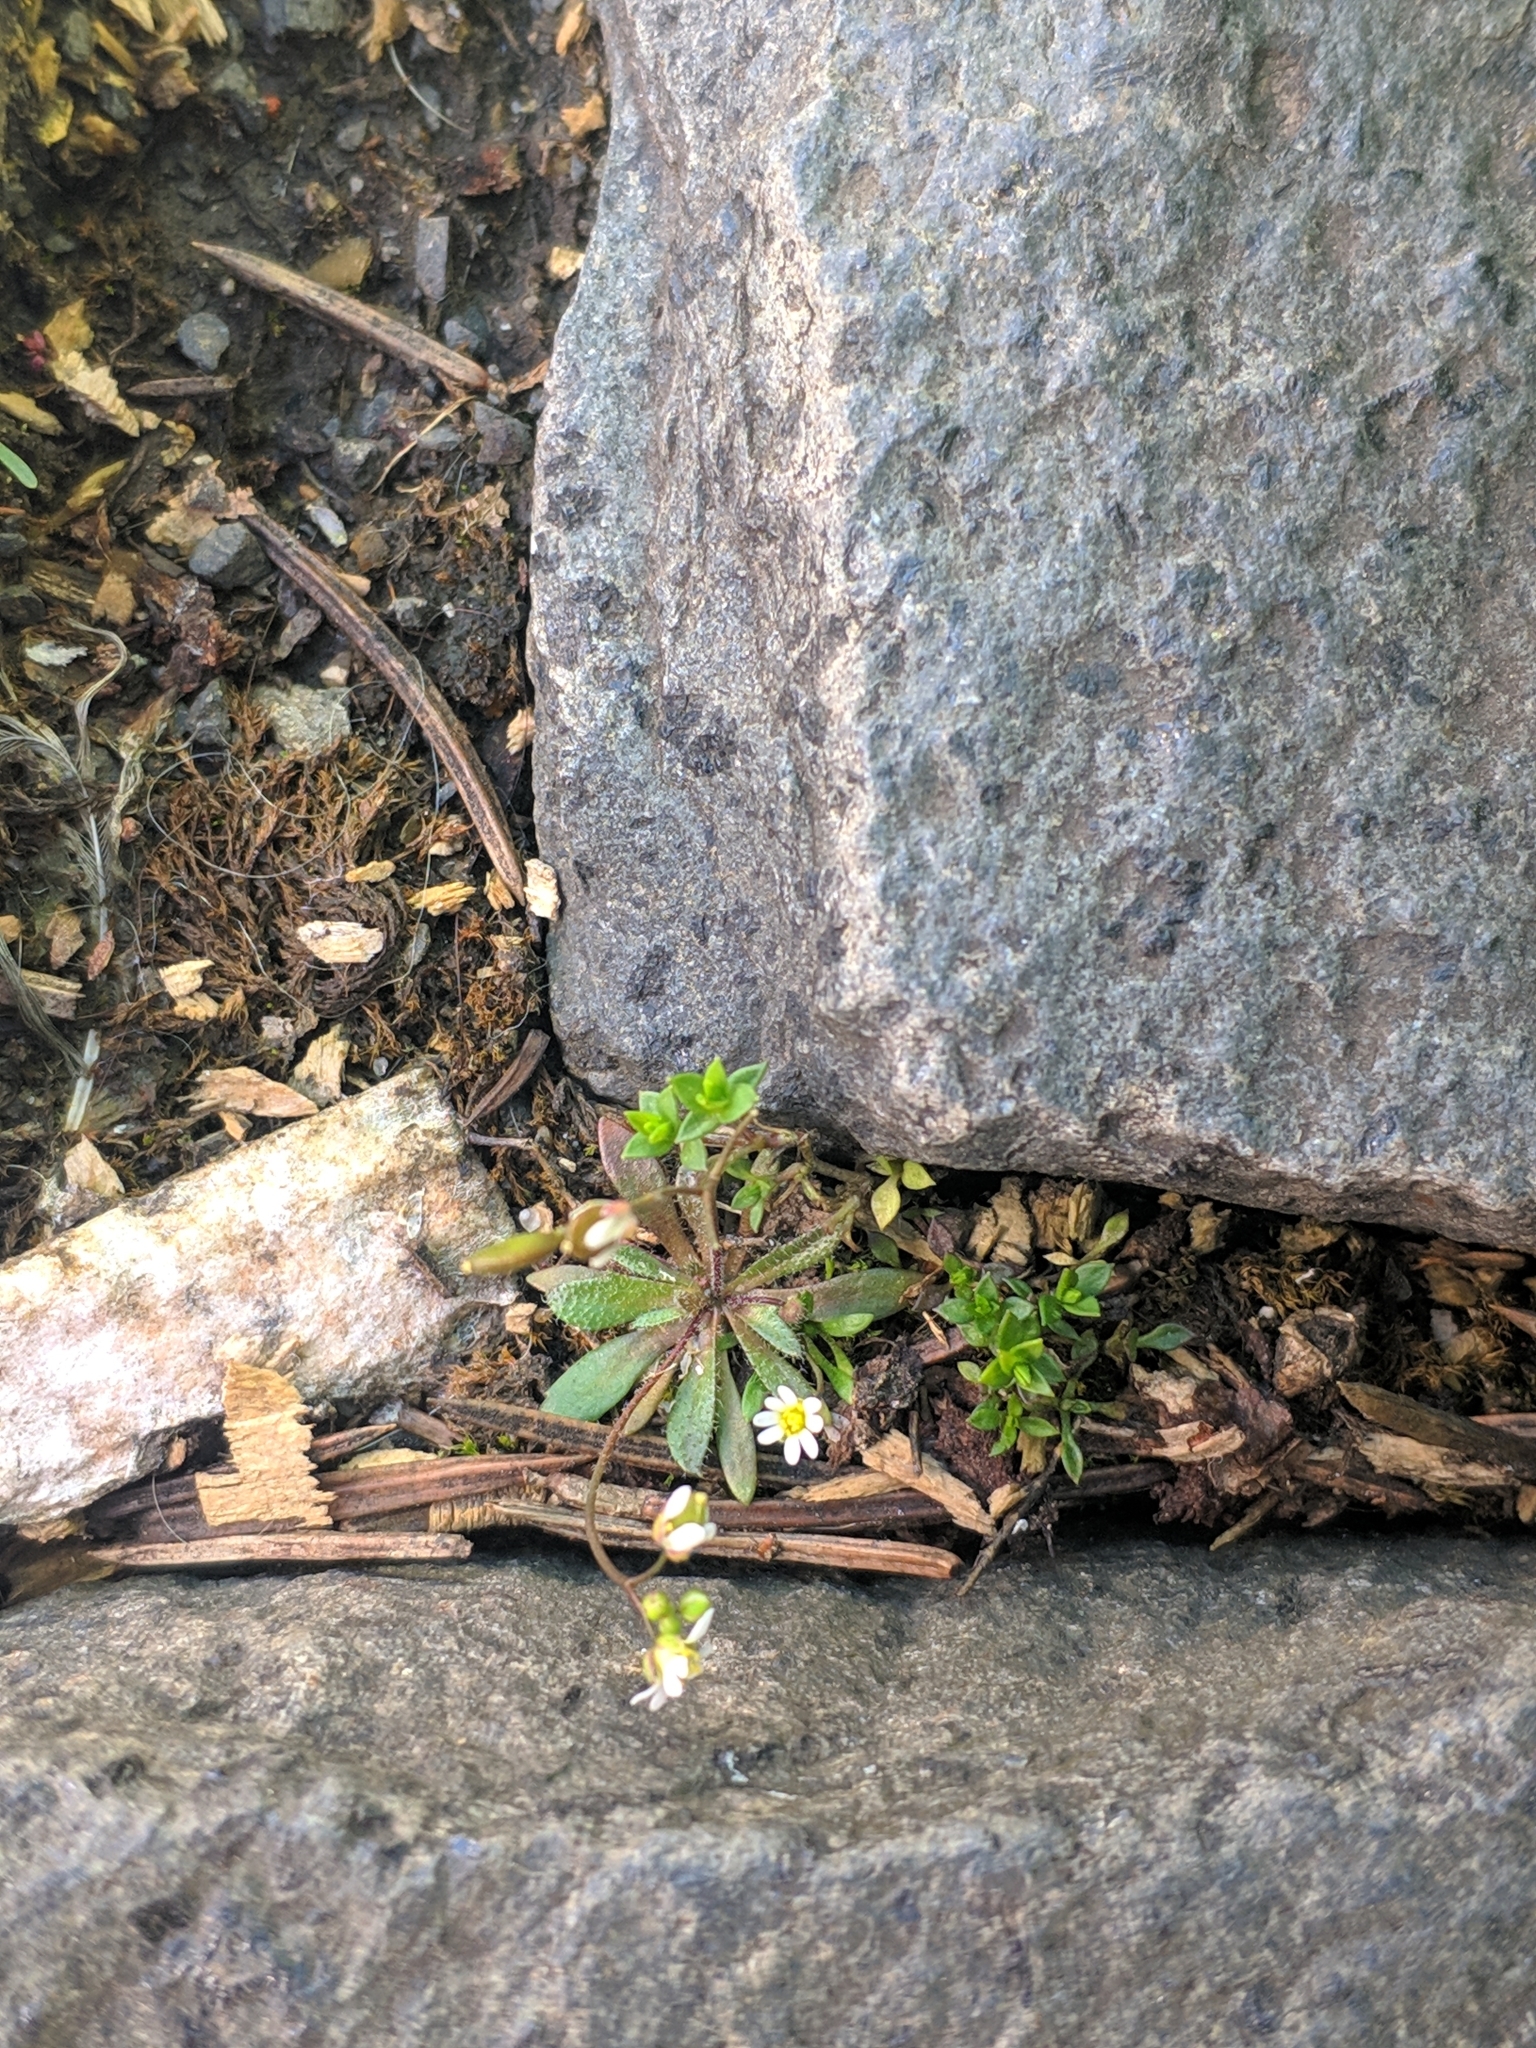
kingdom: Plantae
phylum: Tracheophyta
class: Magnoliopsida
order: Brassicales
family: Brassicaceae
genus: Draba
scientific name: Draba verna
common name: Spring draba
